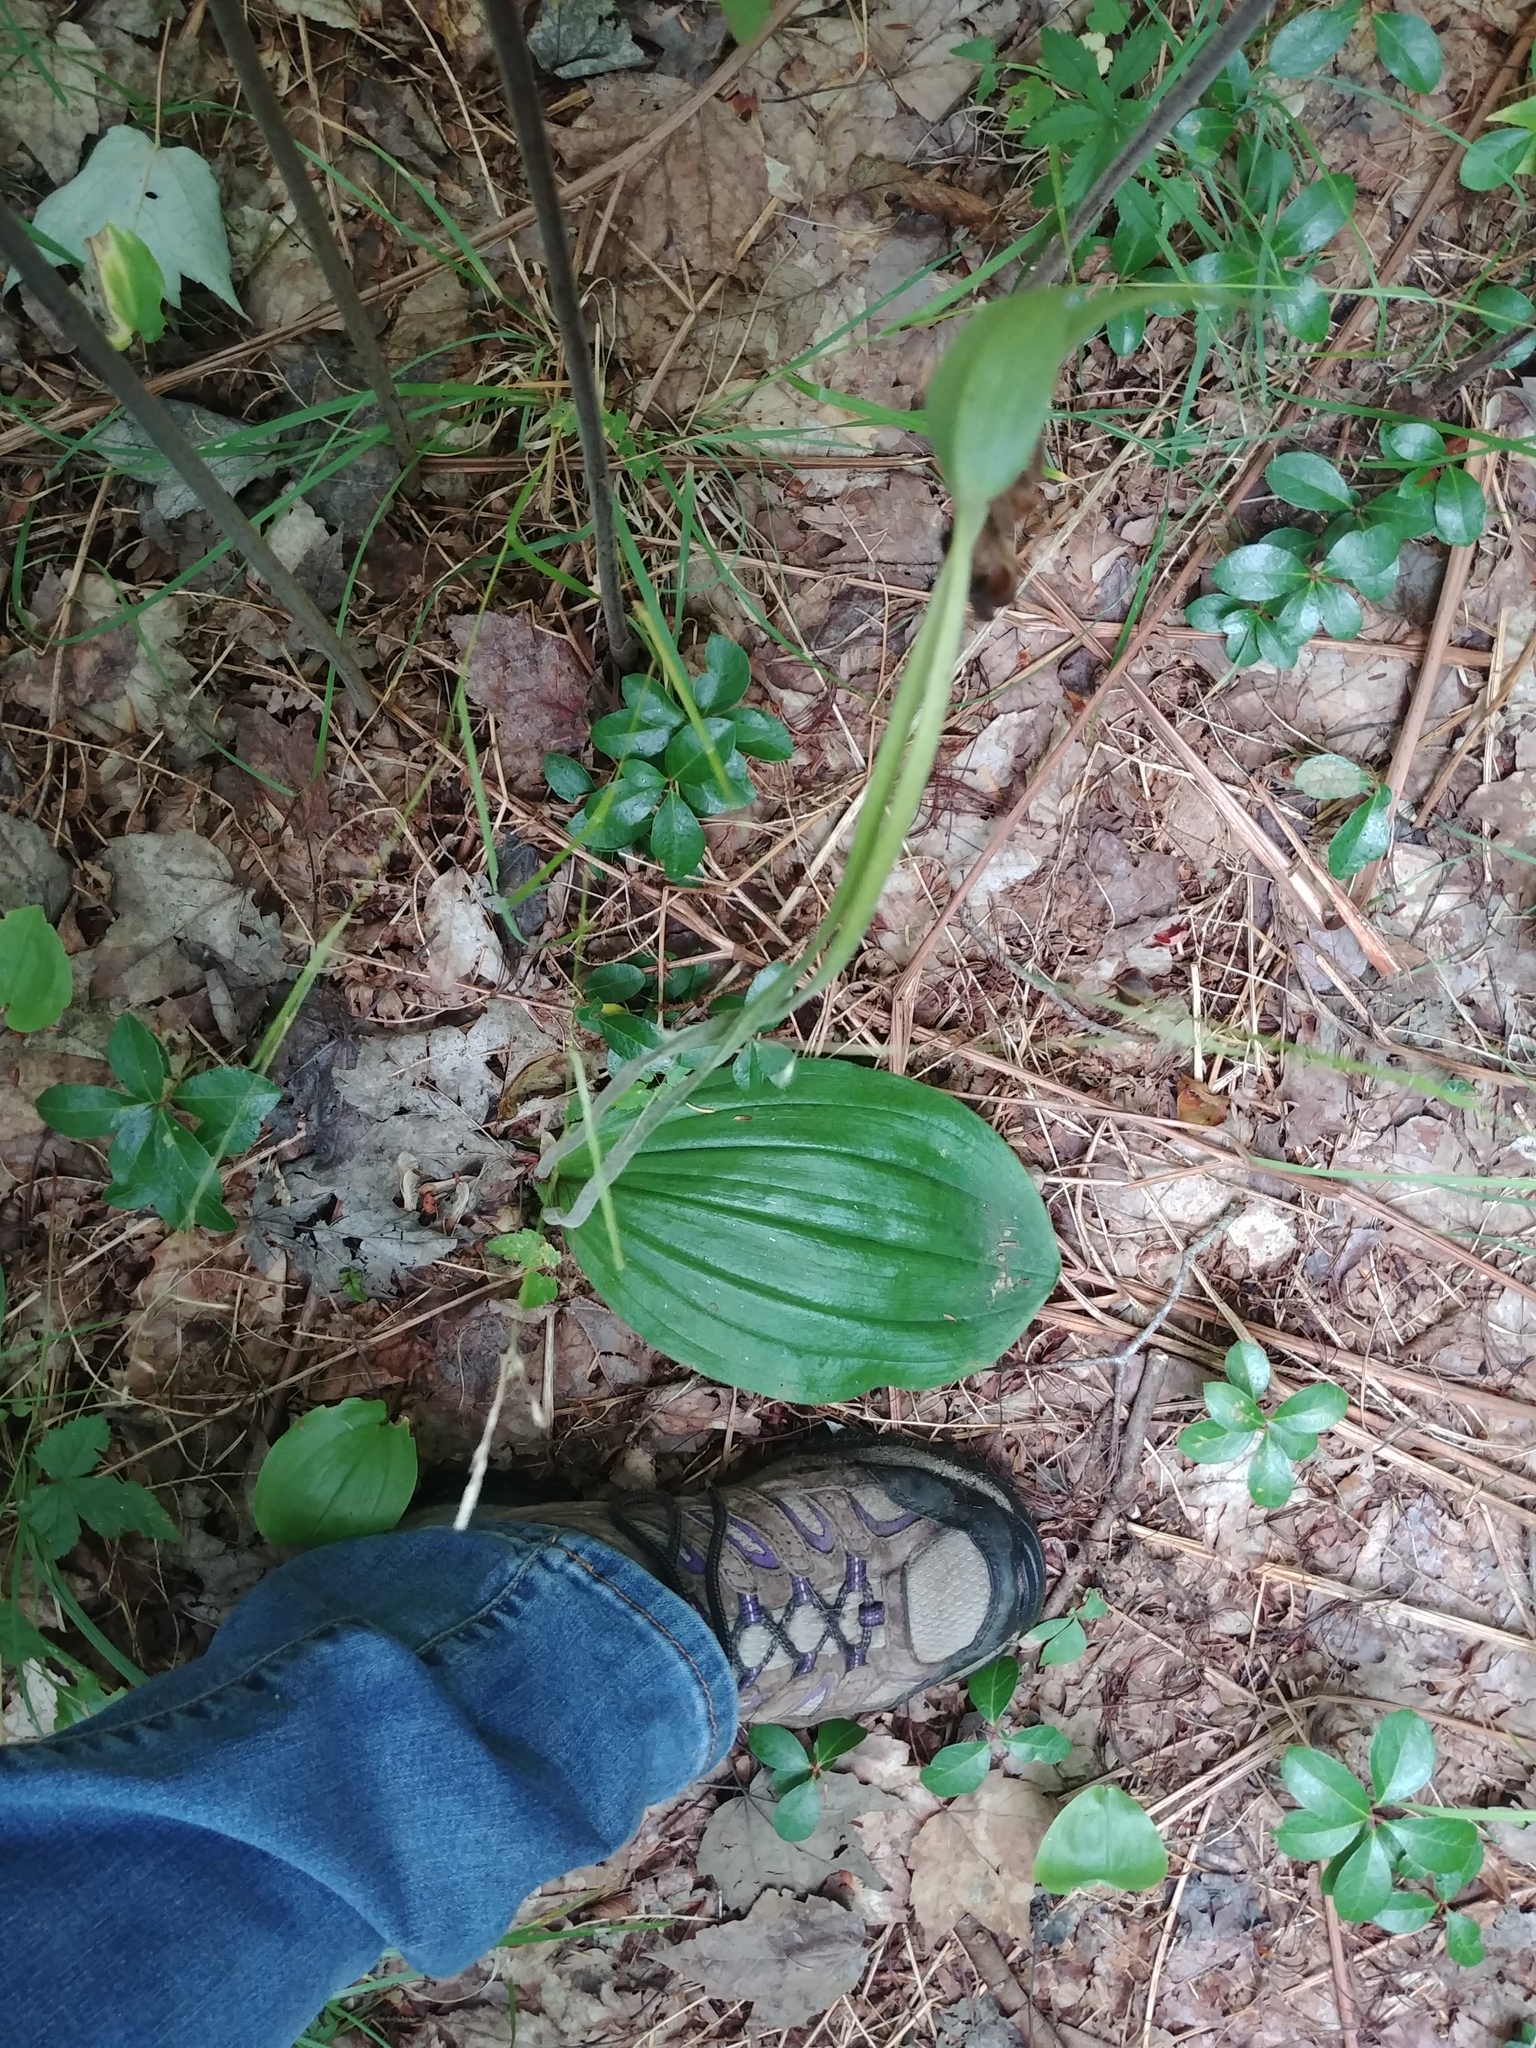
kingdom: Plantae
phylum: Tracheophyta
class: Liliopsida
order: Asparagales
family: Orchidaceae
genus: Cypripedium
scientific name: Cypripedium acaule
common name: Pink lady's-slipper
